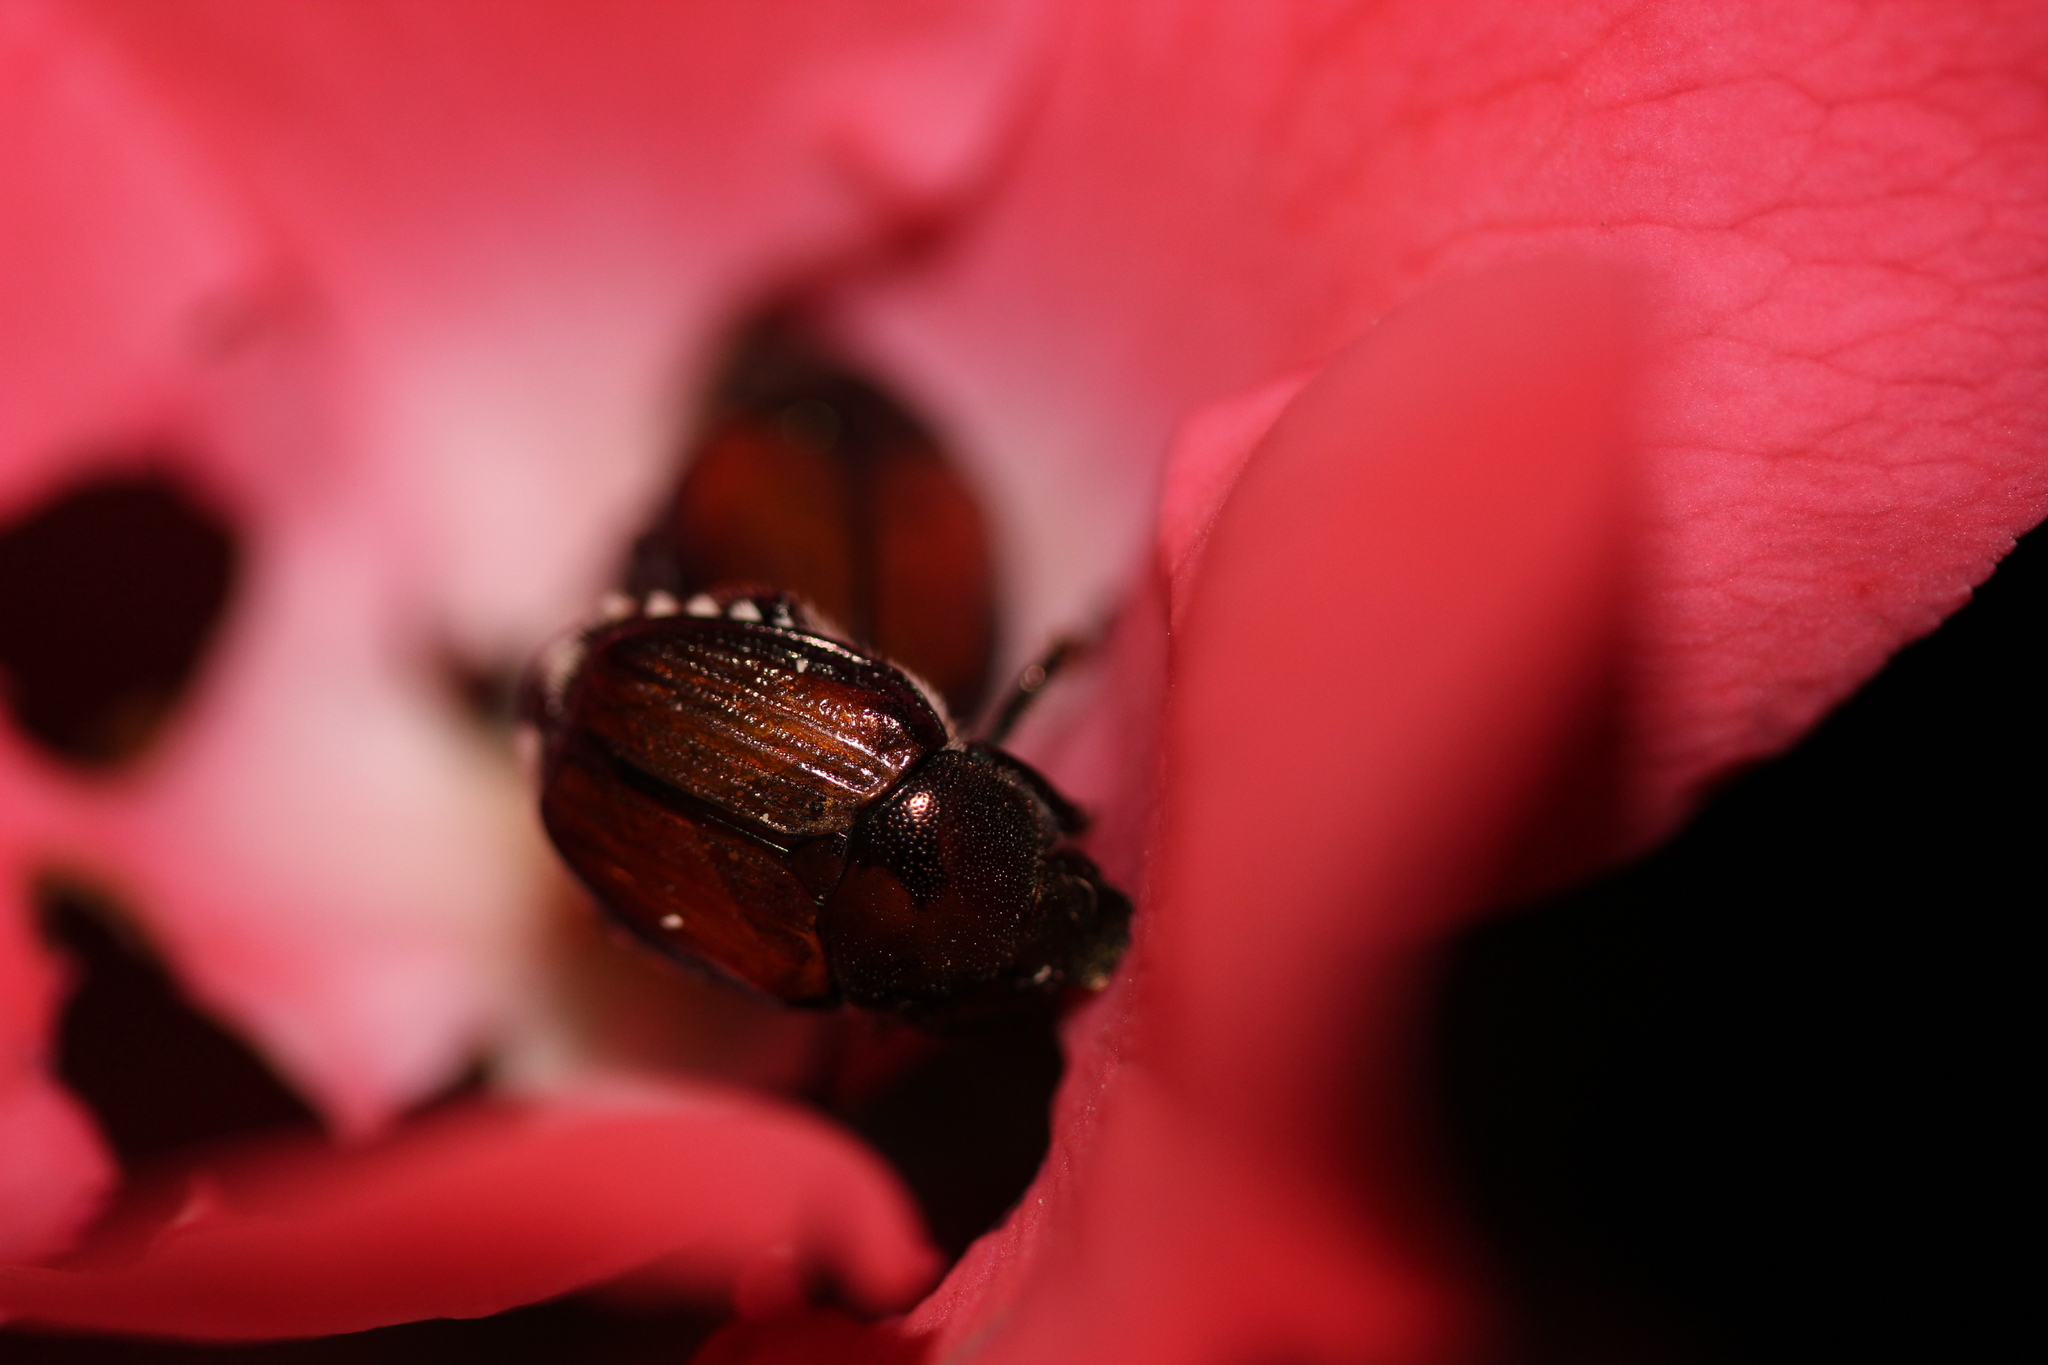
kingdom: Animalia
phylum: Arthropoda
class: Insecta
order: Coleoptera
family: Scarabaeidae
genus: Popillia
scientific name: Popillia japonica
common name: Japanese beetle
